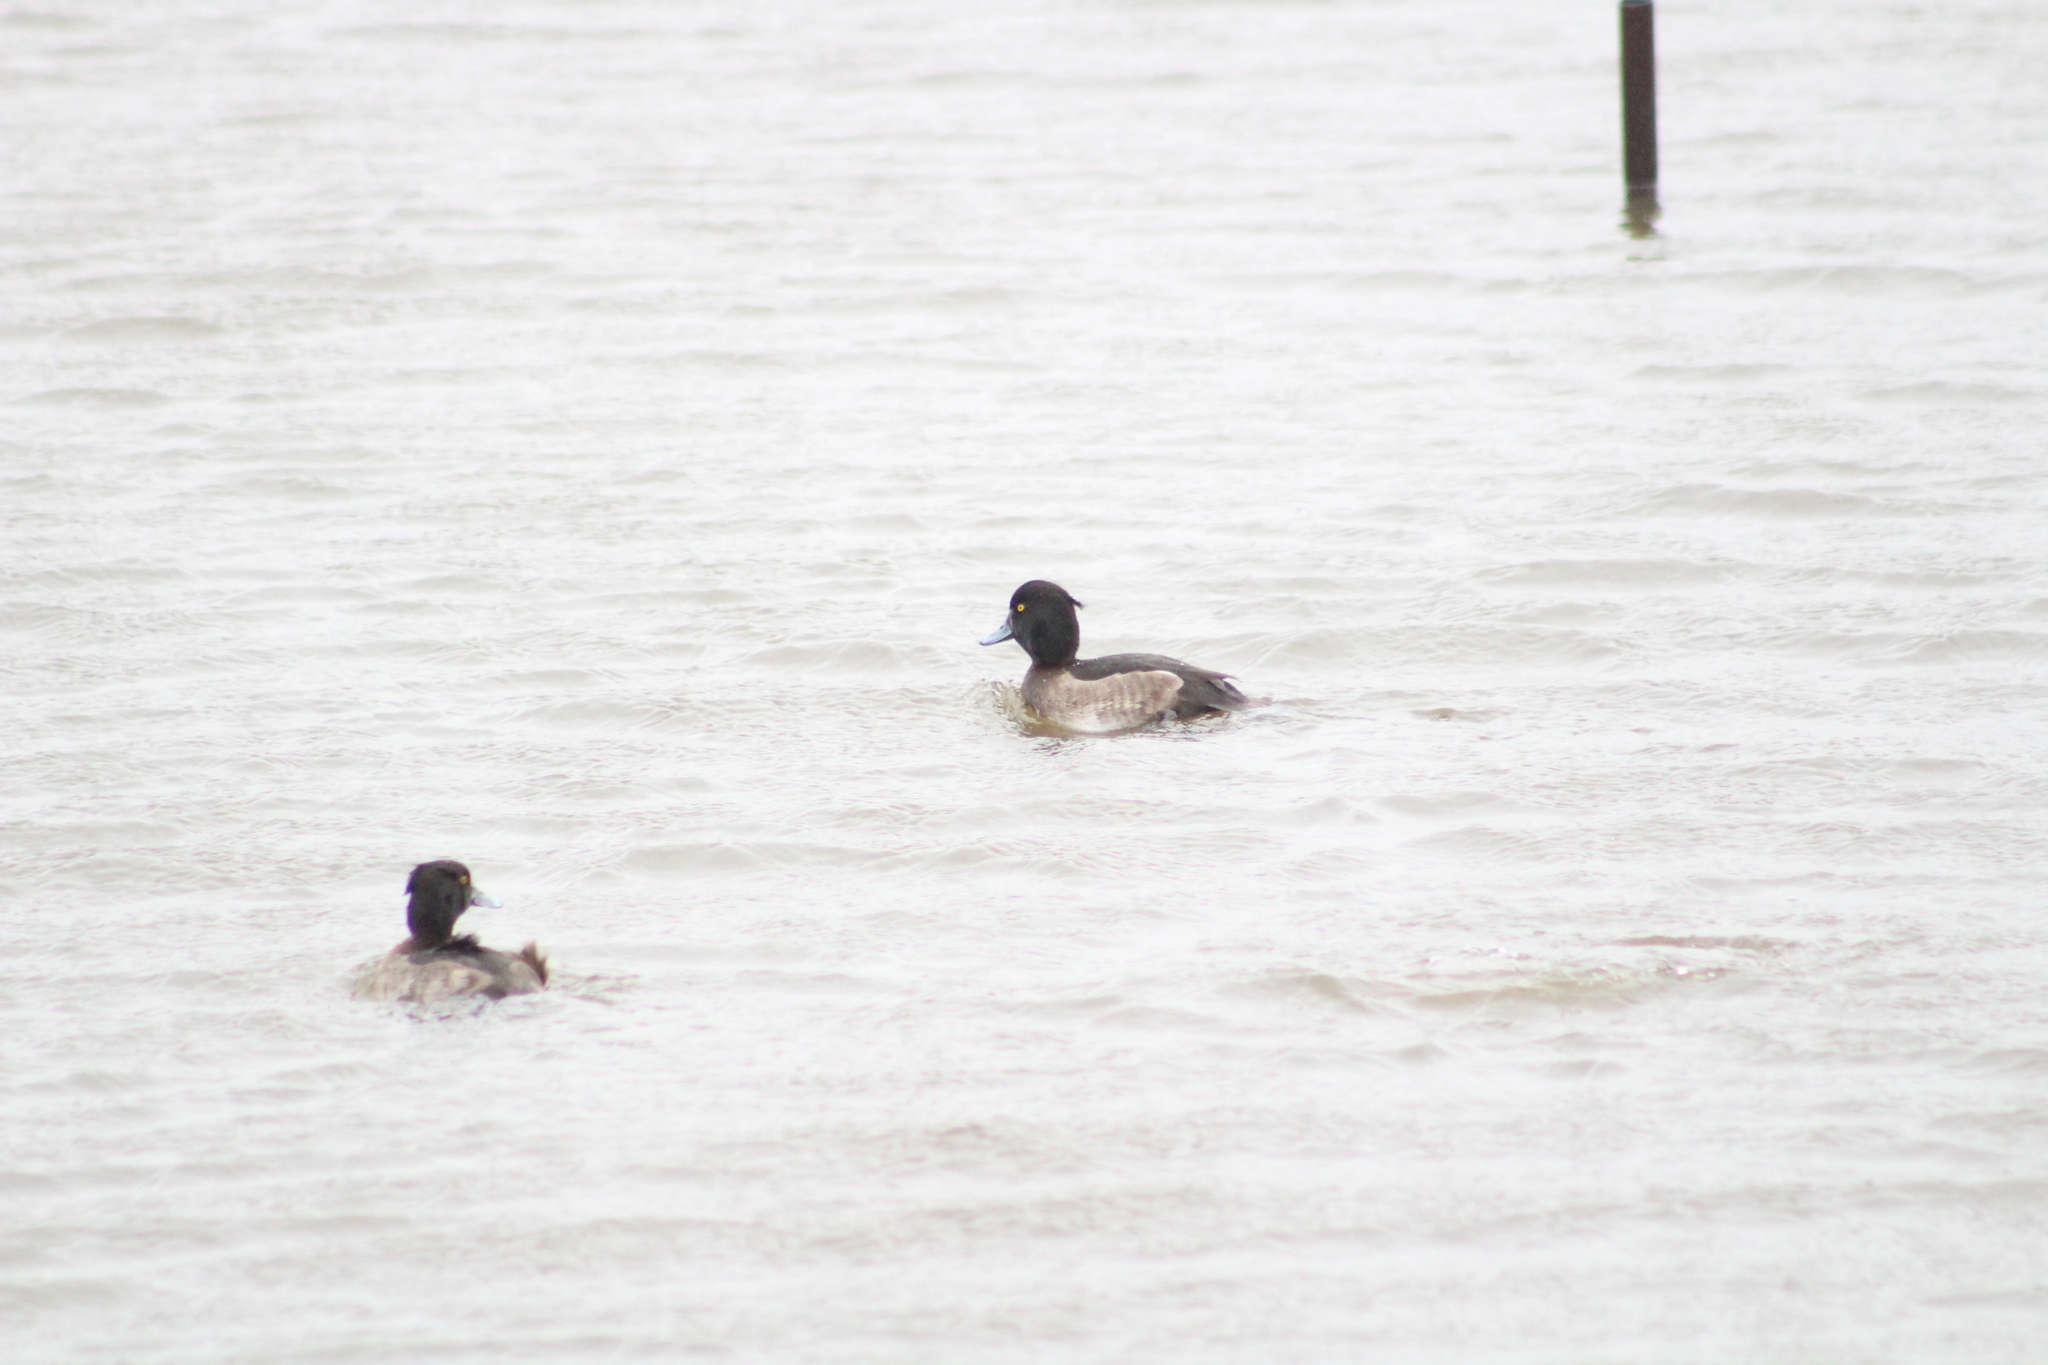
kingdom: Animalia
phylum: Chordata
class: Aves
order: Anseriformes
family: Anatidae
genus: Aythya
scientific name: Aythya fuligula
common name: Tufted duck
